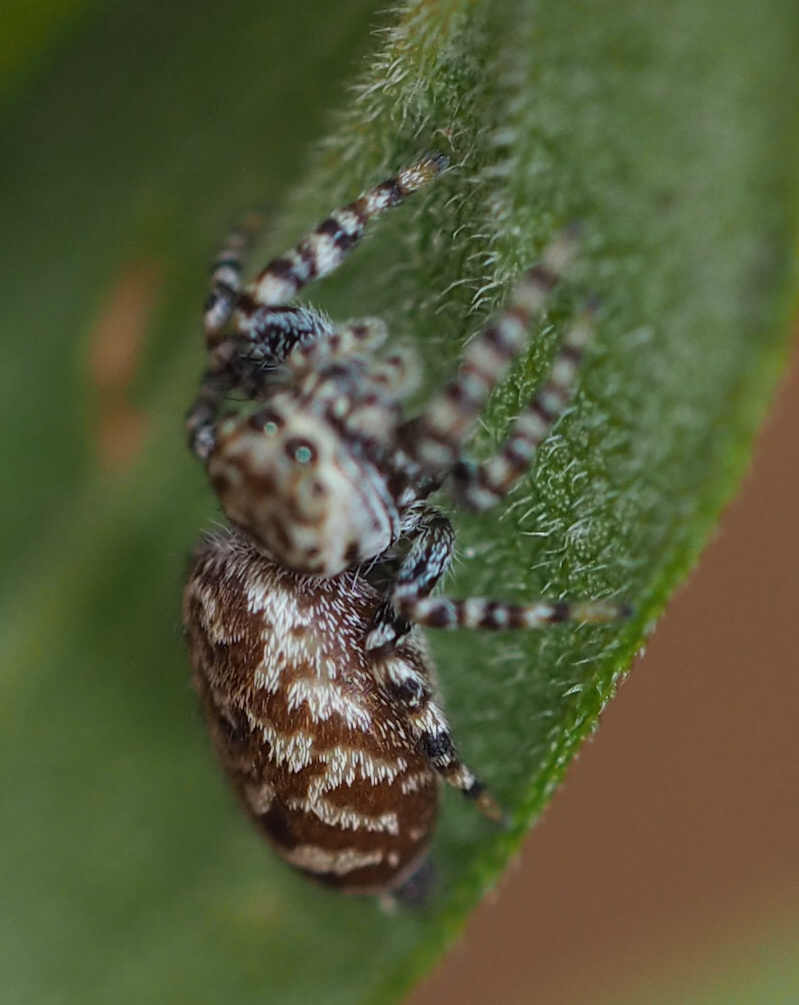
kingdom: Animalia
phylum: Arthropoda
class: Arachnida
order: Araneae
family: Salticidae
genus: Pelegrina
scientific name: Pelegrina galathea
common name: Jumping spiders
